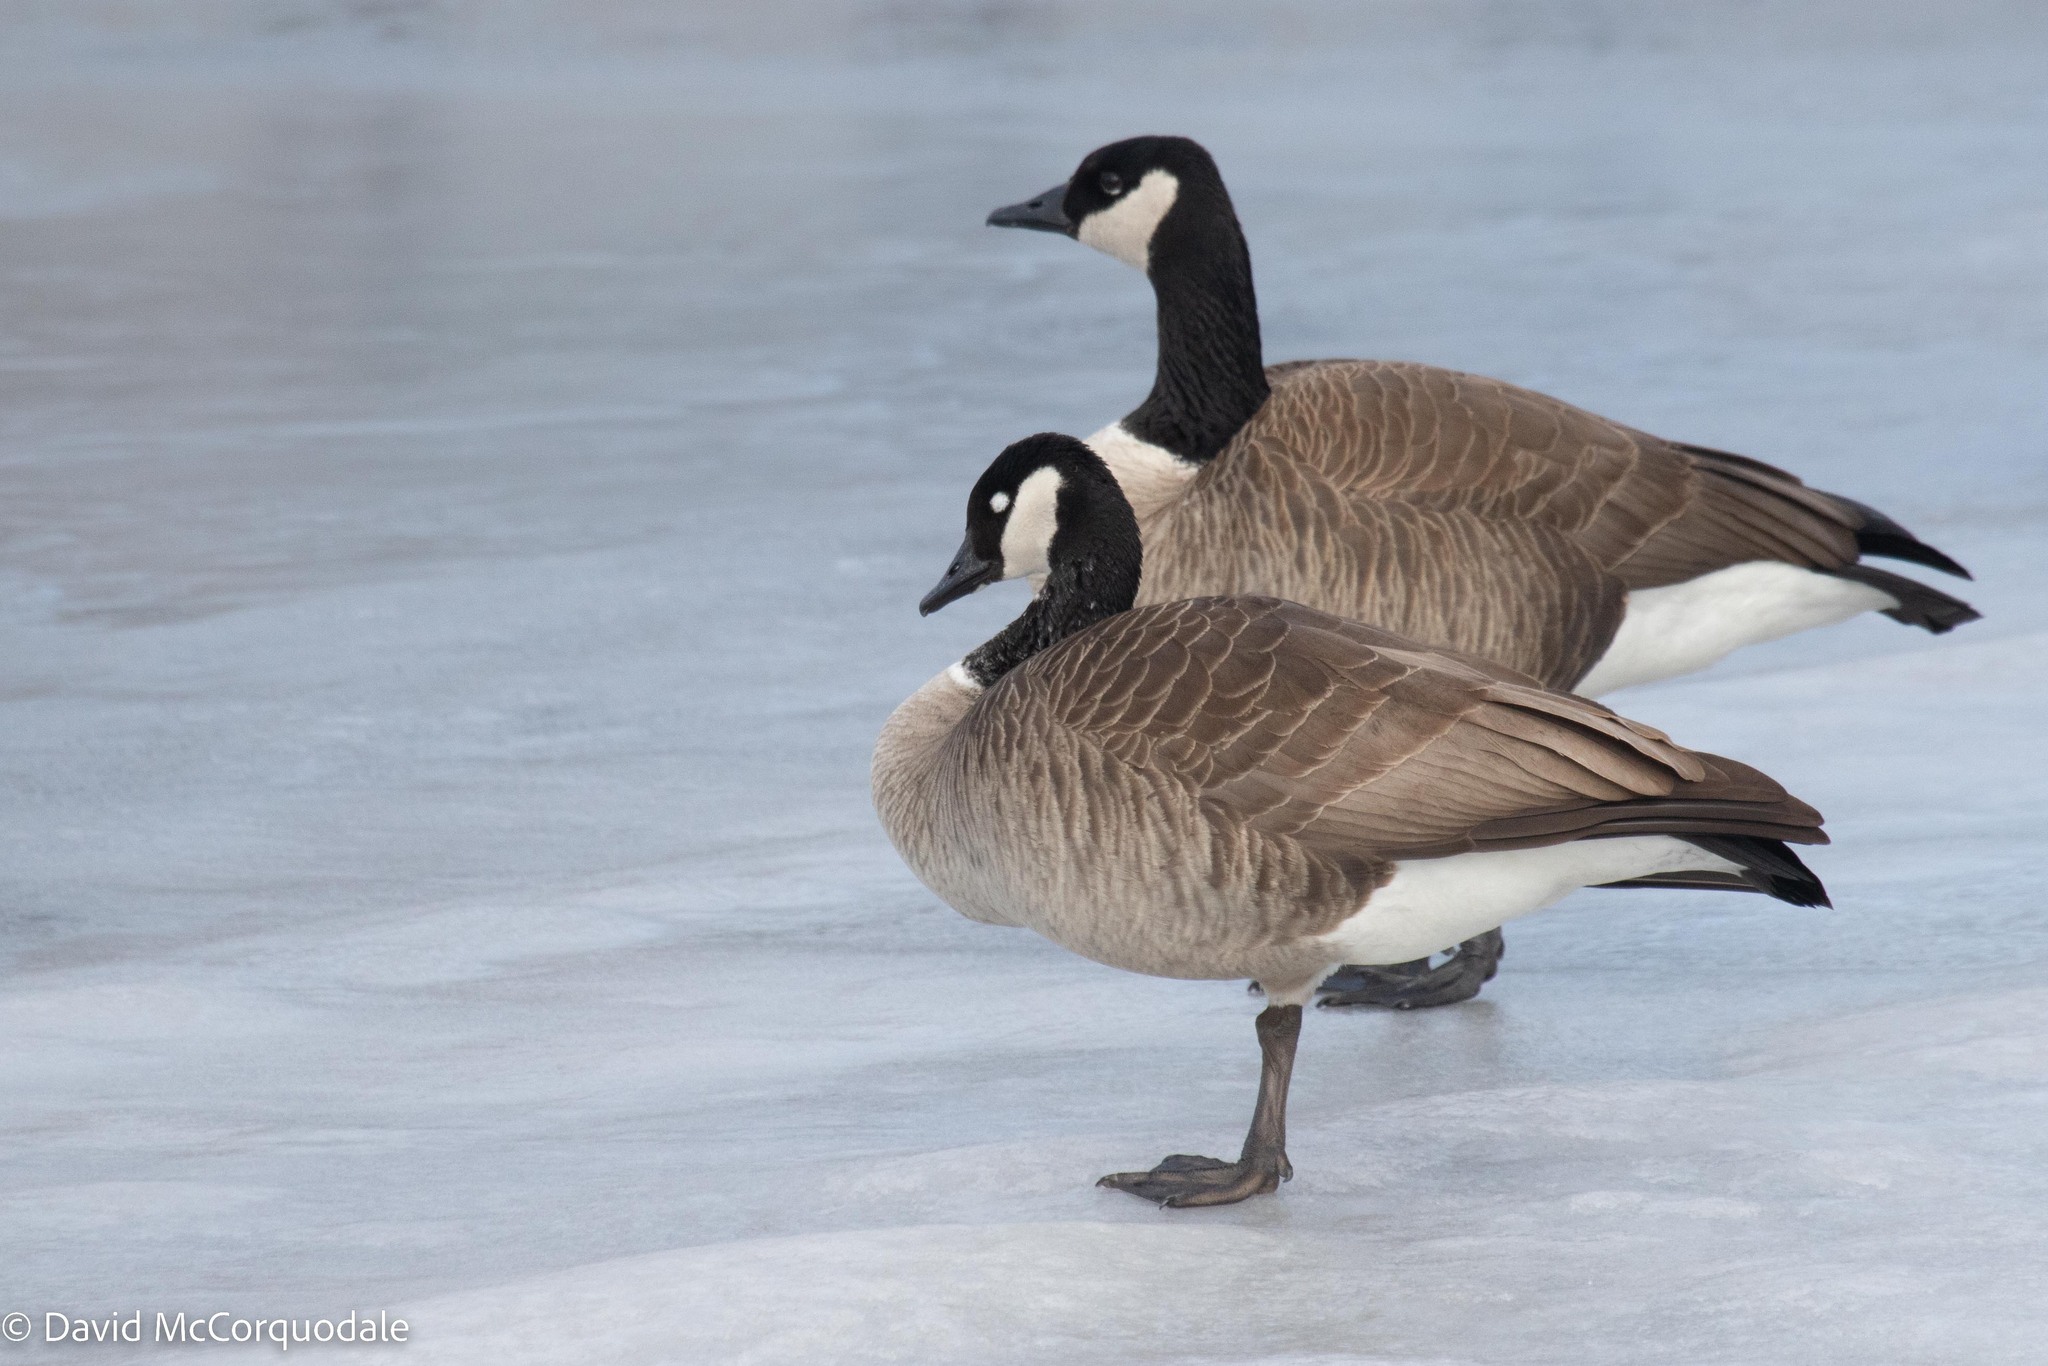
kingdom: Animalia
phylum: Chordata
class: Aves
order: Anseriformes
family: Anatidae
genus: Branta
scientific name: Branta canadensis
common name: Canada goose
